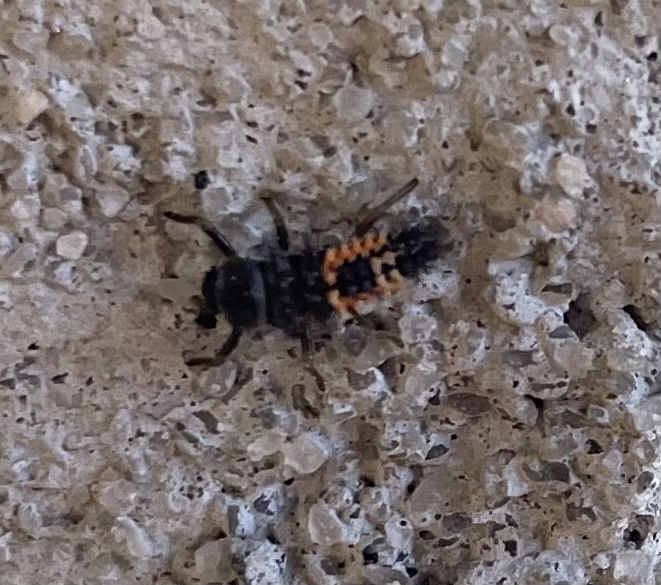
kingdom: Animalia
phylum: Arthropoda
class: Insecta
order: Coleoptera
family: Coccinellidae
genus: Harmonia
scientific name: Harmonia axyridis
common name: Harlequin ladybird
